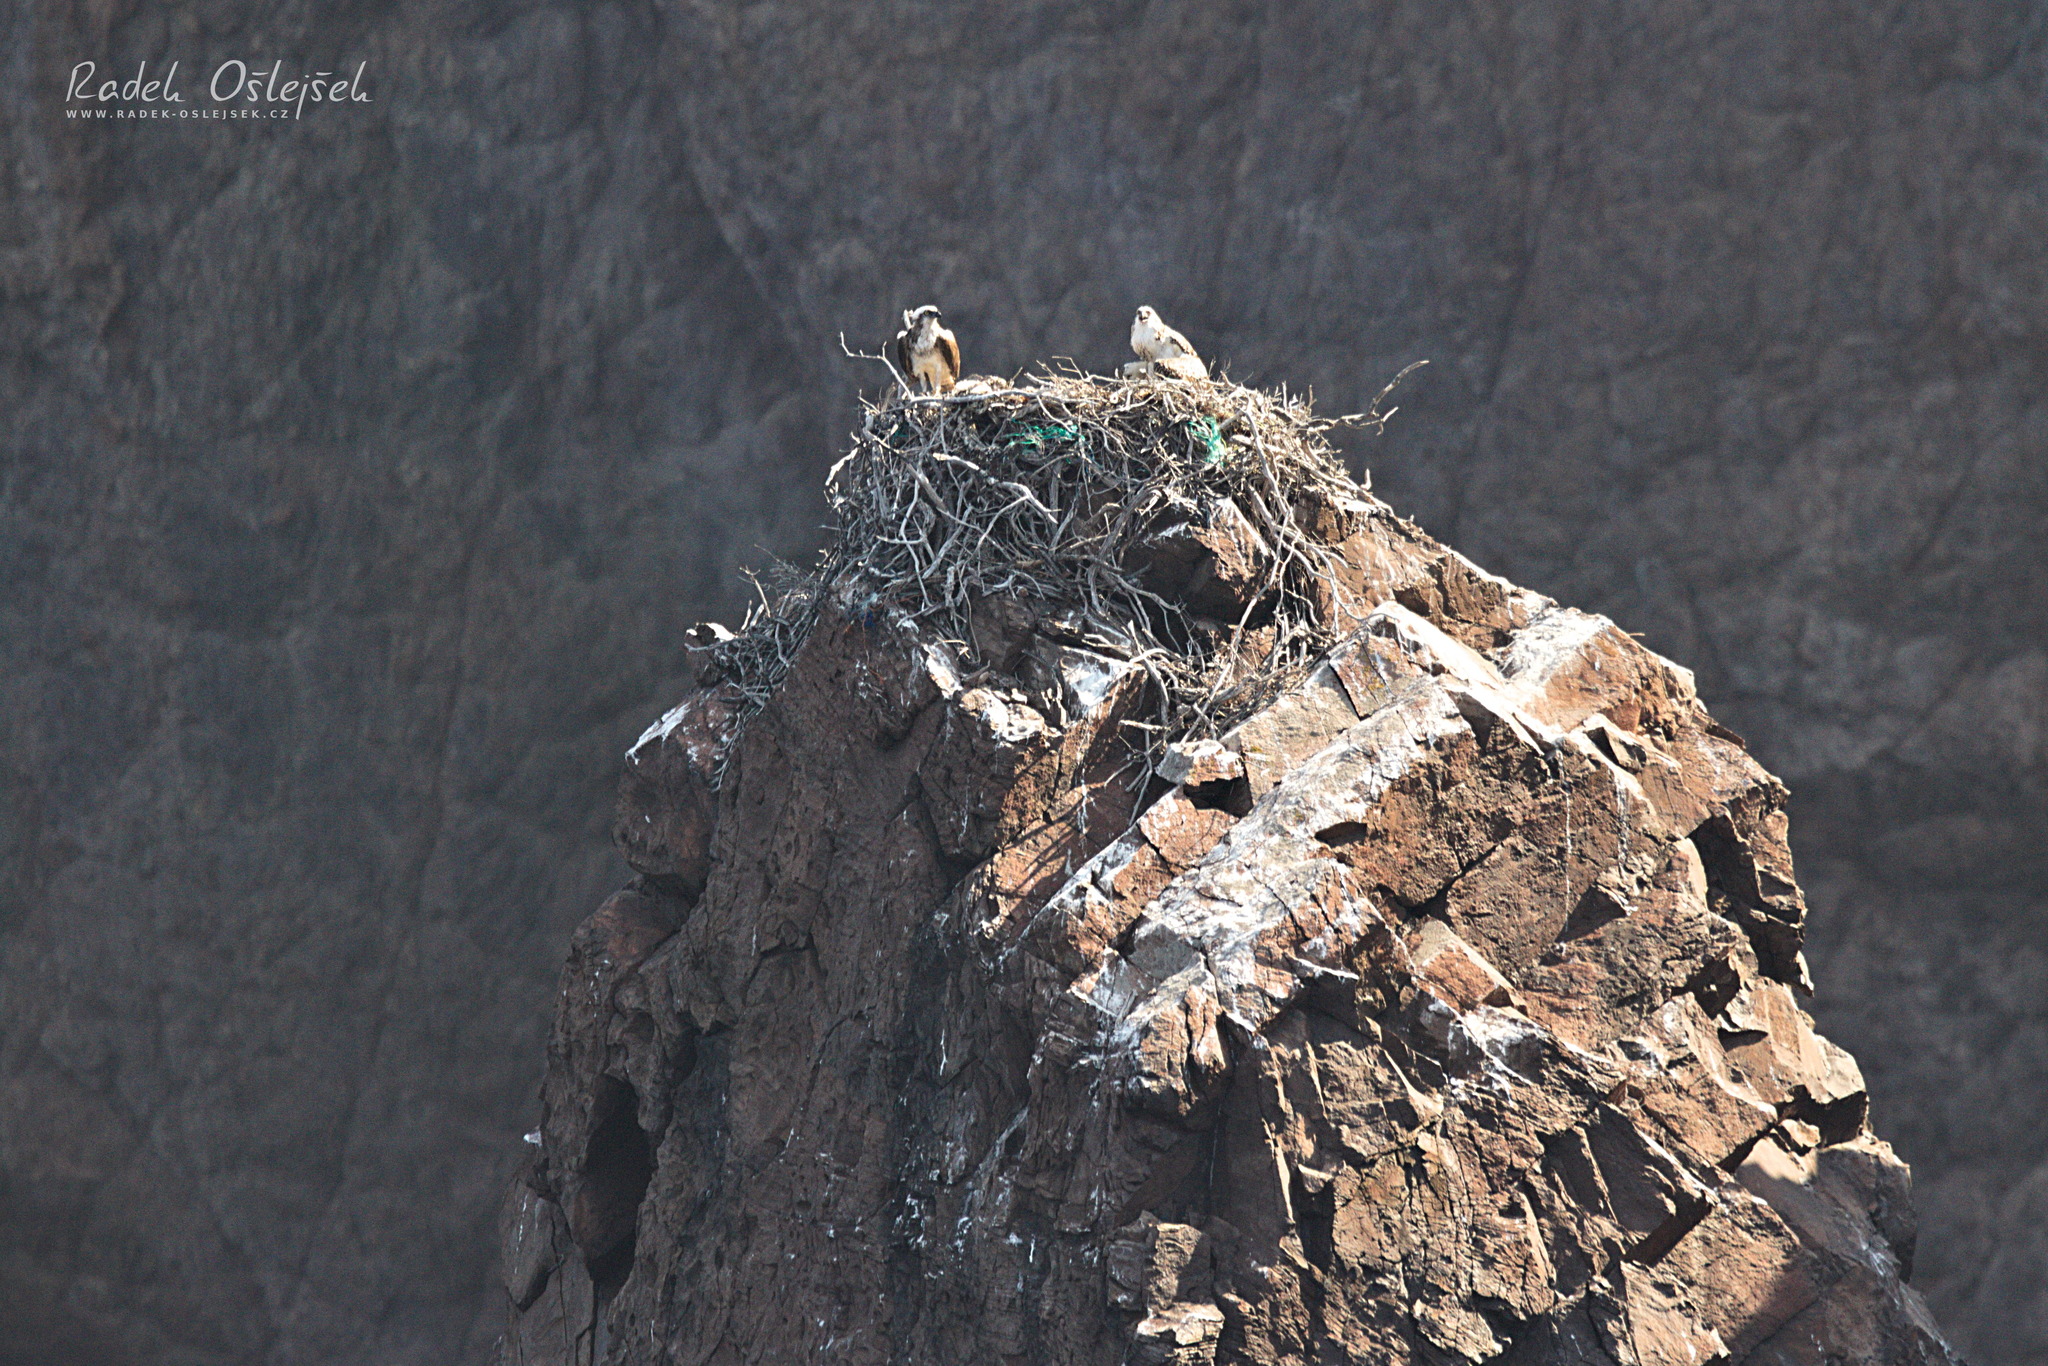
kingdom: Animalia
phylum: Chordata
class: Aves
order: Accipitriformes
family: Pandionidae
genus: Pandion
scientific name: Pandion haliaetus
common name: Osprey
